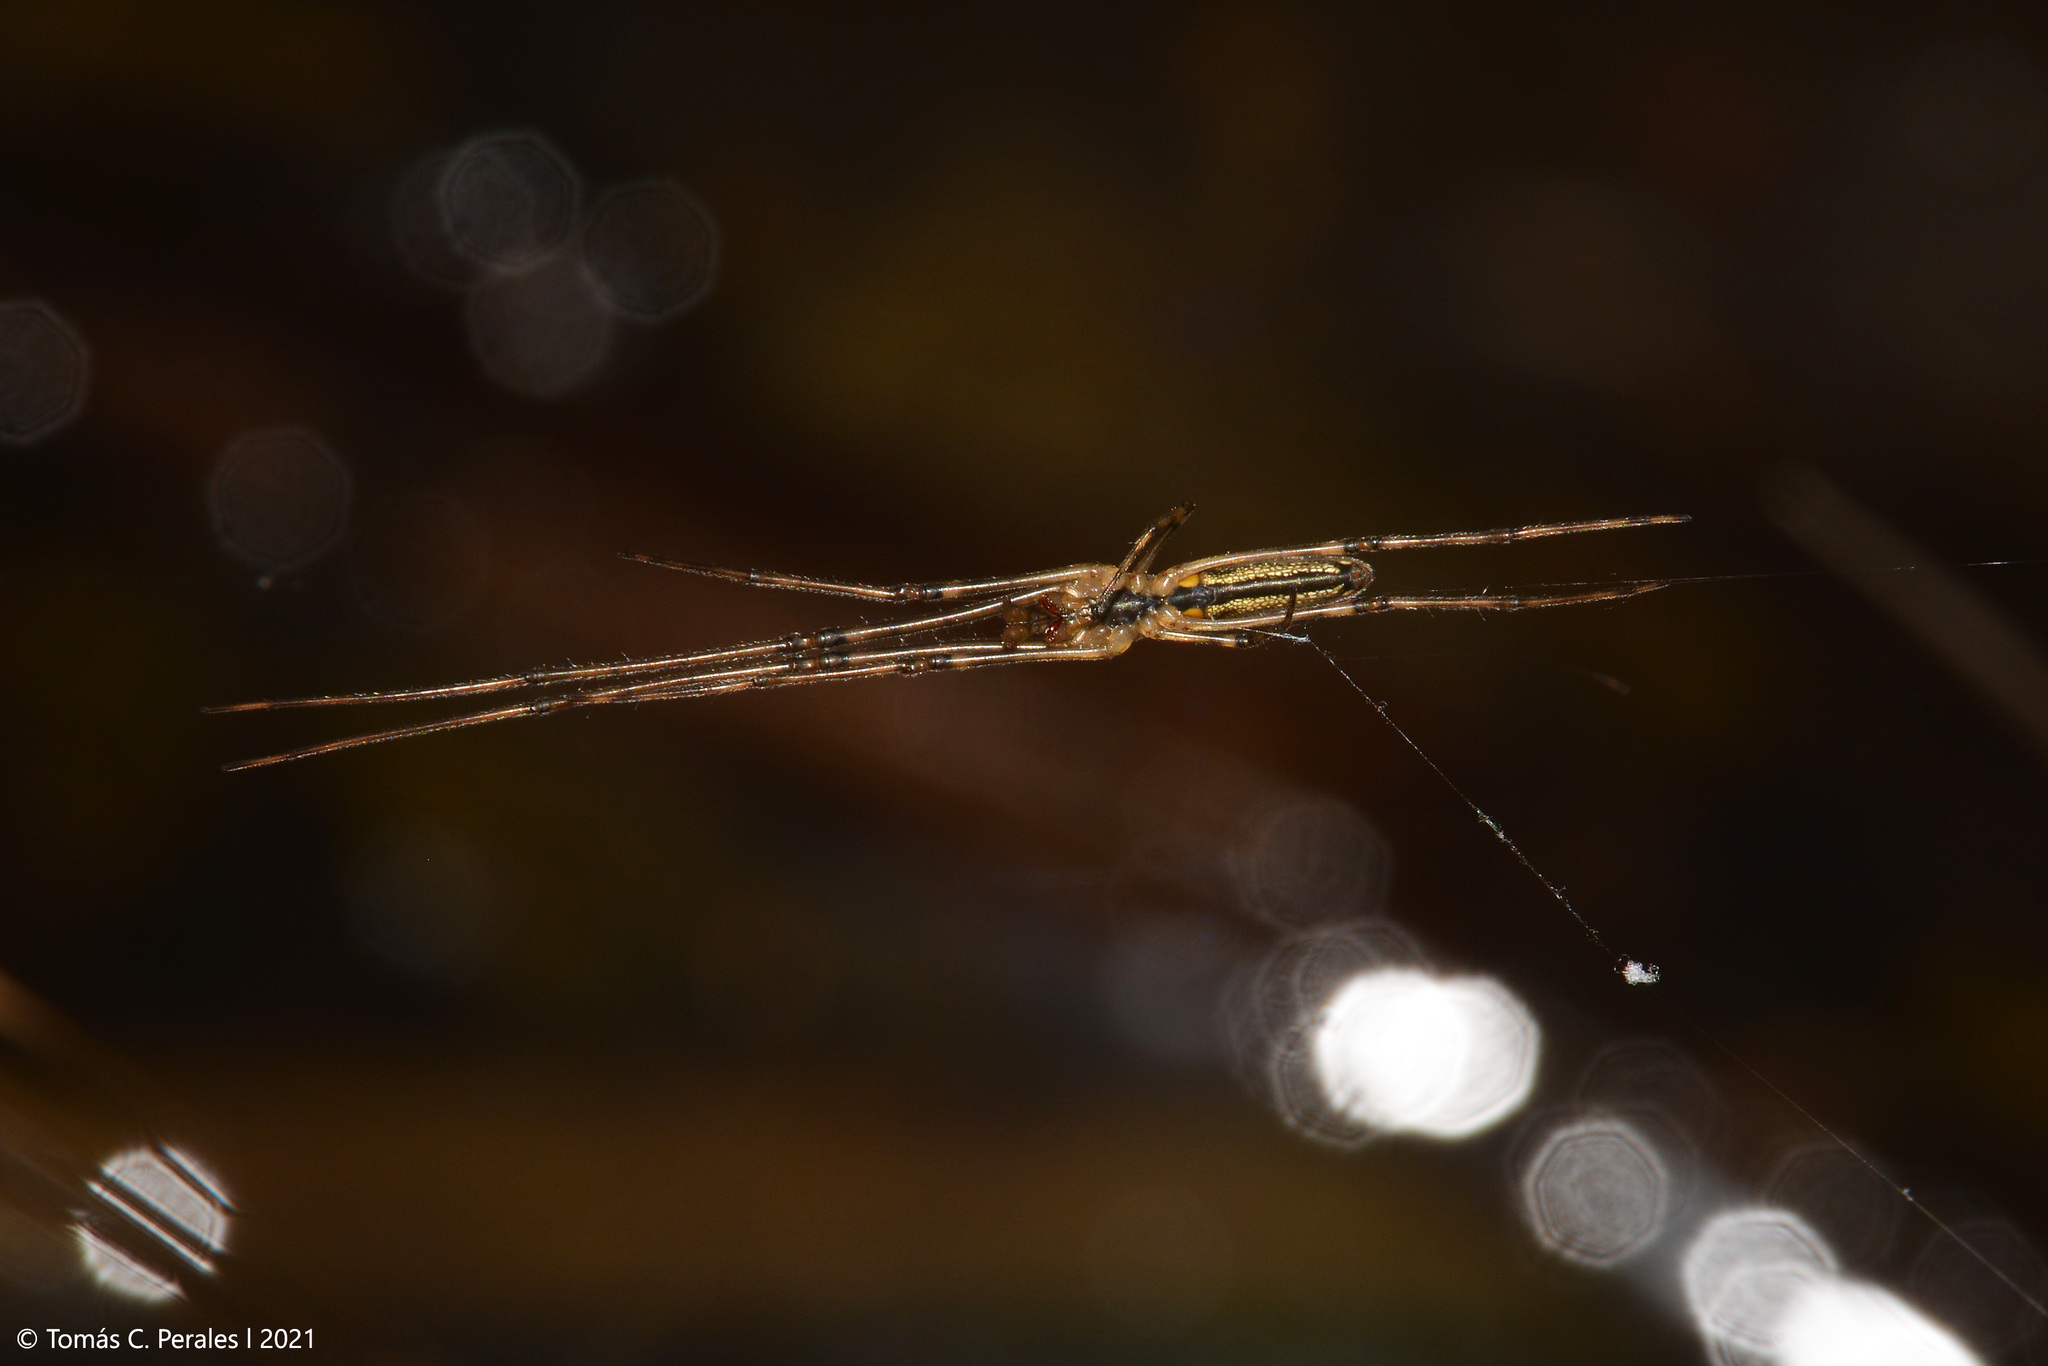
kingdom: Animalia
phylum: Arthropoda
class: Arachnida
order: Araneae
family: Tetragnathidae
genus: Tetragnatha
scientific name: Tetragnatha
